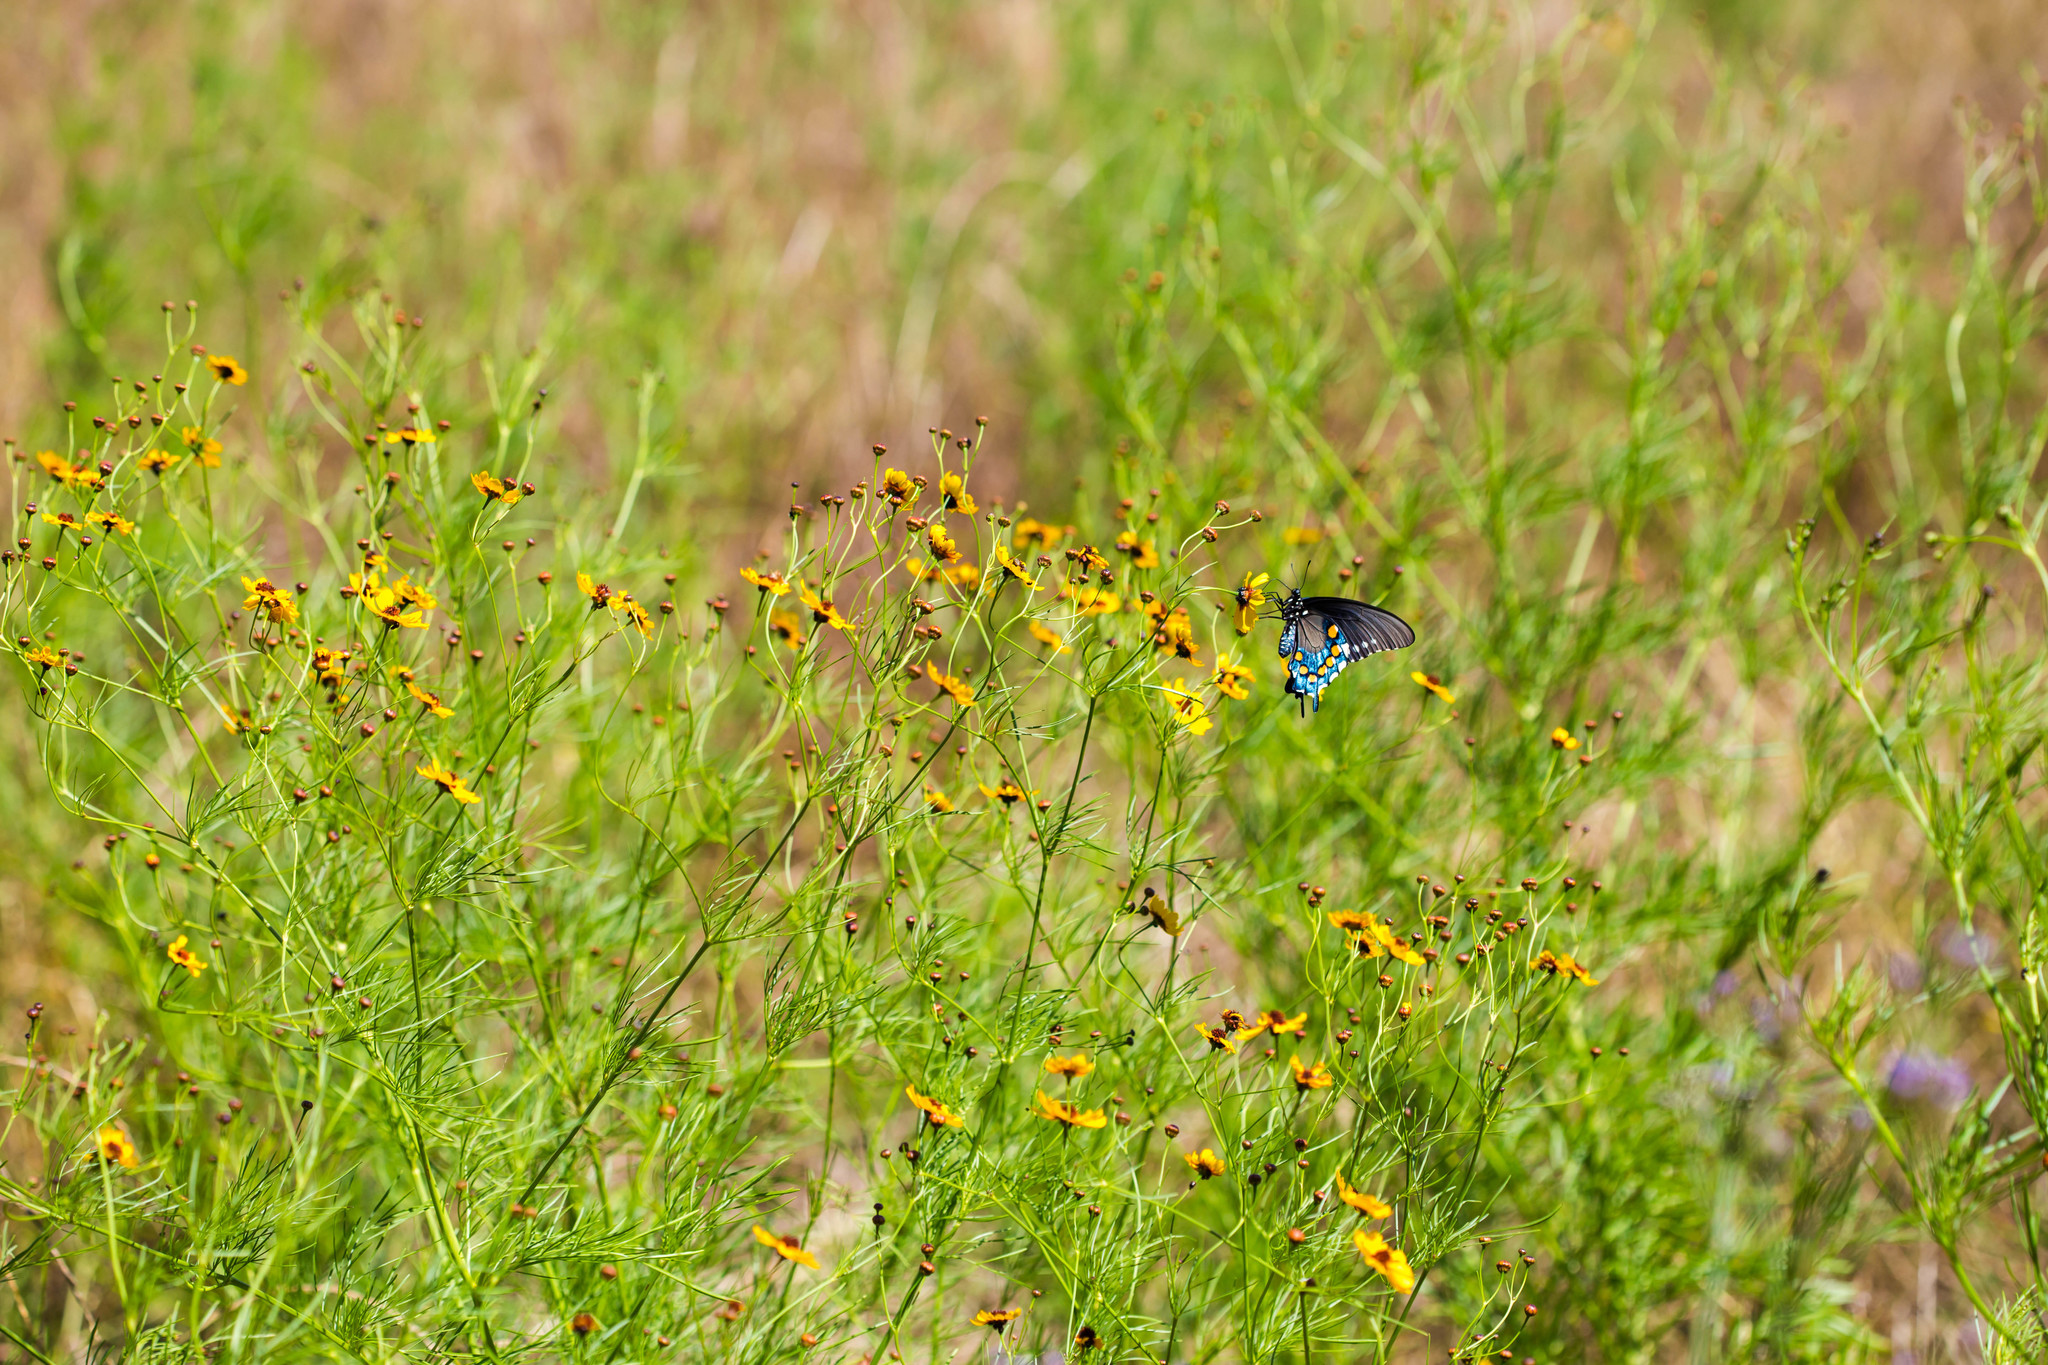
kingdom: Animalia
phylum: Arthropoda
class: Insecta
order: Lepidoptera
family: Papilionidae
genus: Battus
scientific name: Battus philenor
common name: Pipevine swallowtail
